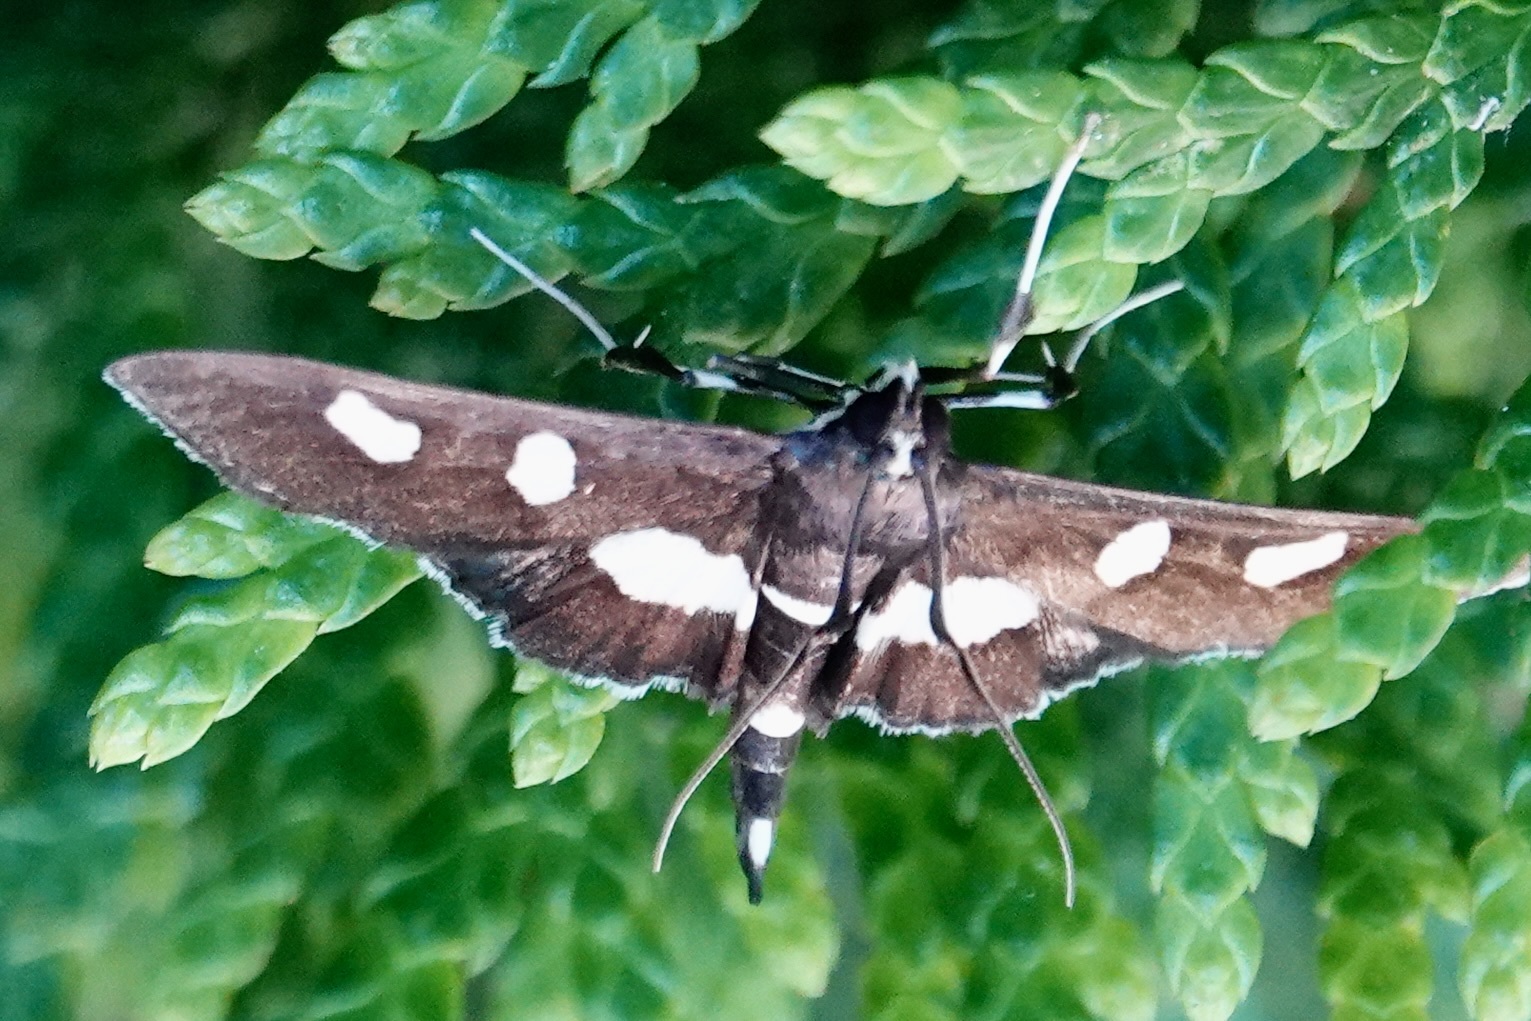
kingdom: Animalia
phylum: Arthropoda
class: Insecta
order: Lepidoptera
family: Crambidae
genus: Desmia
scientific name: Desmia
